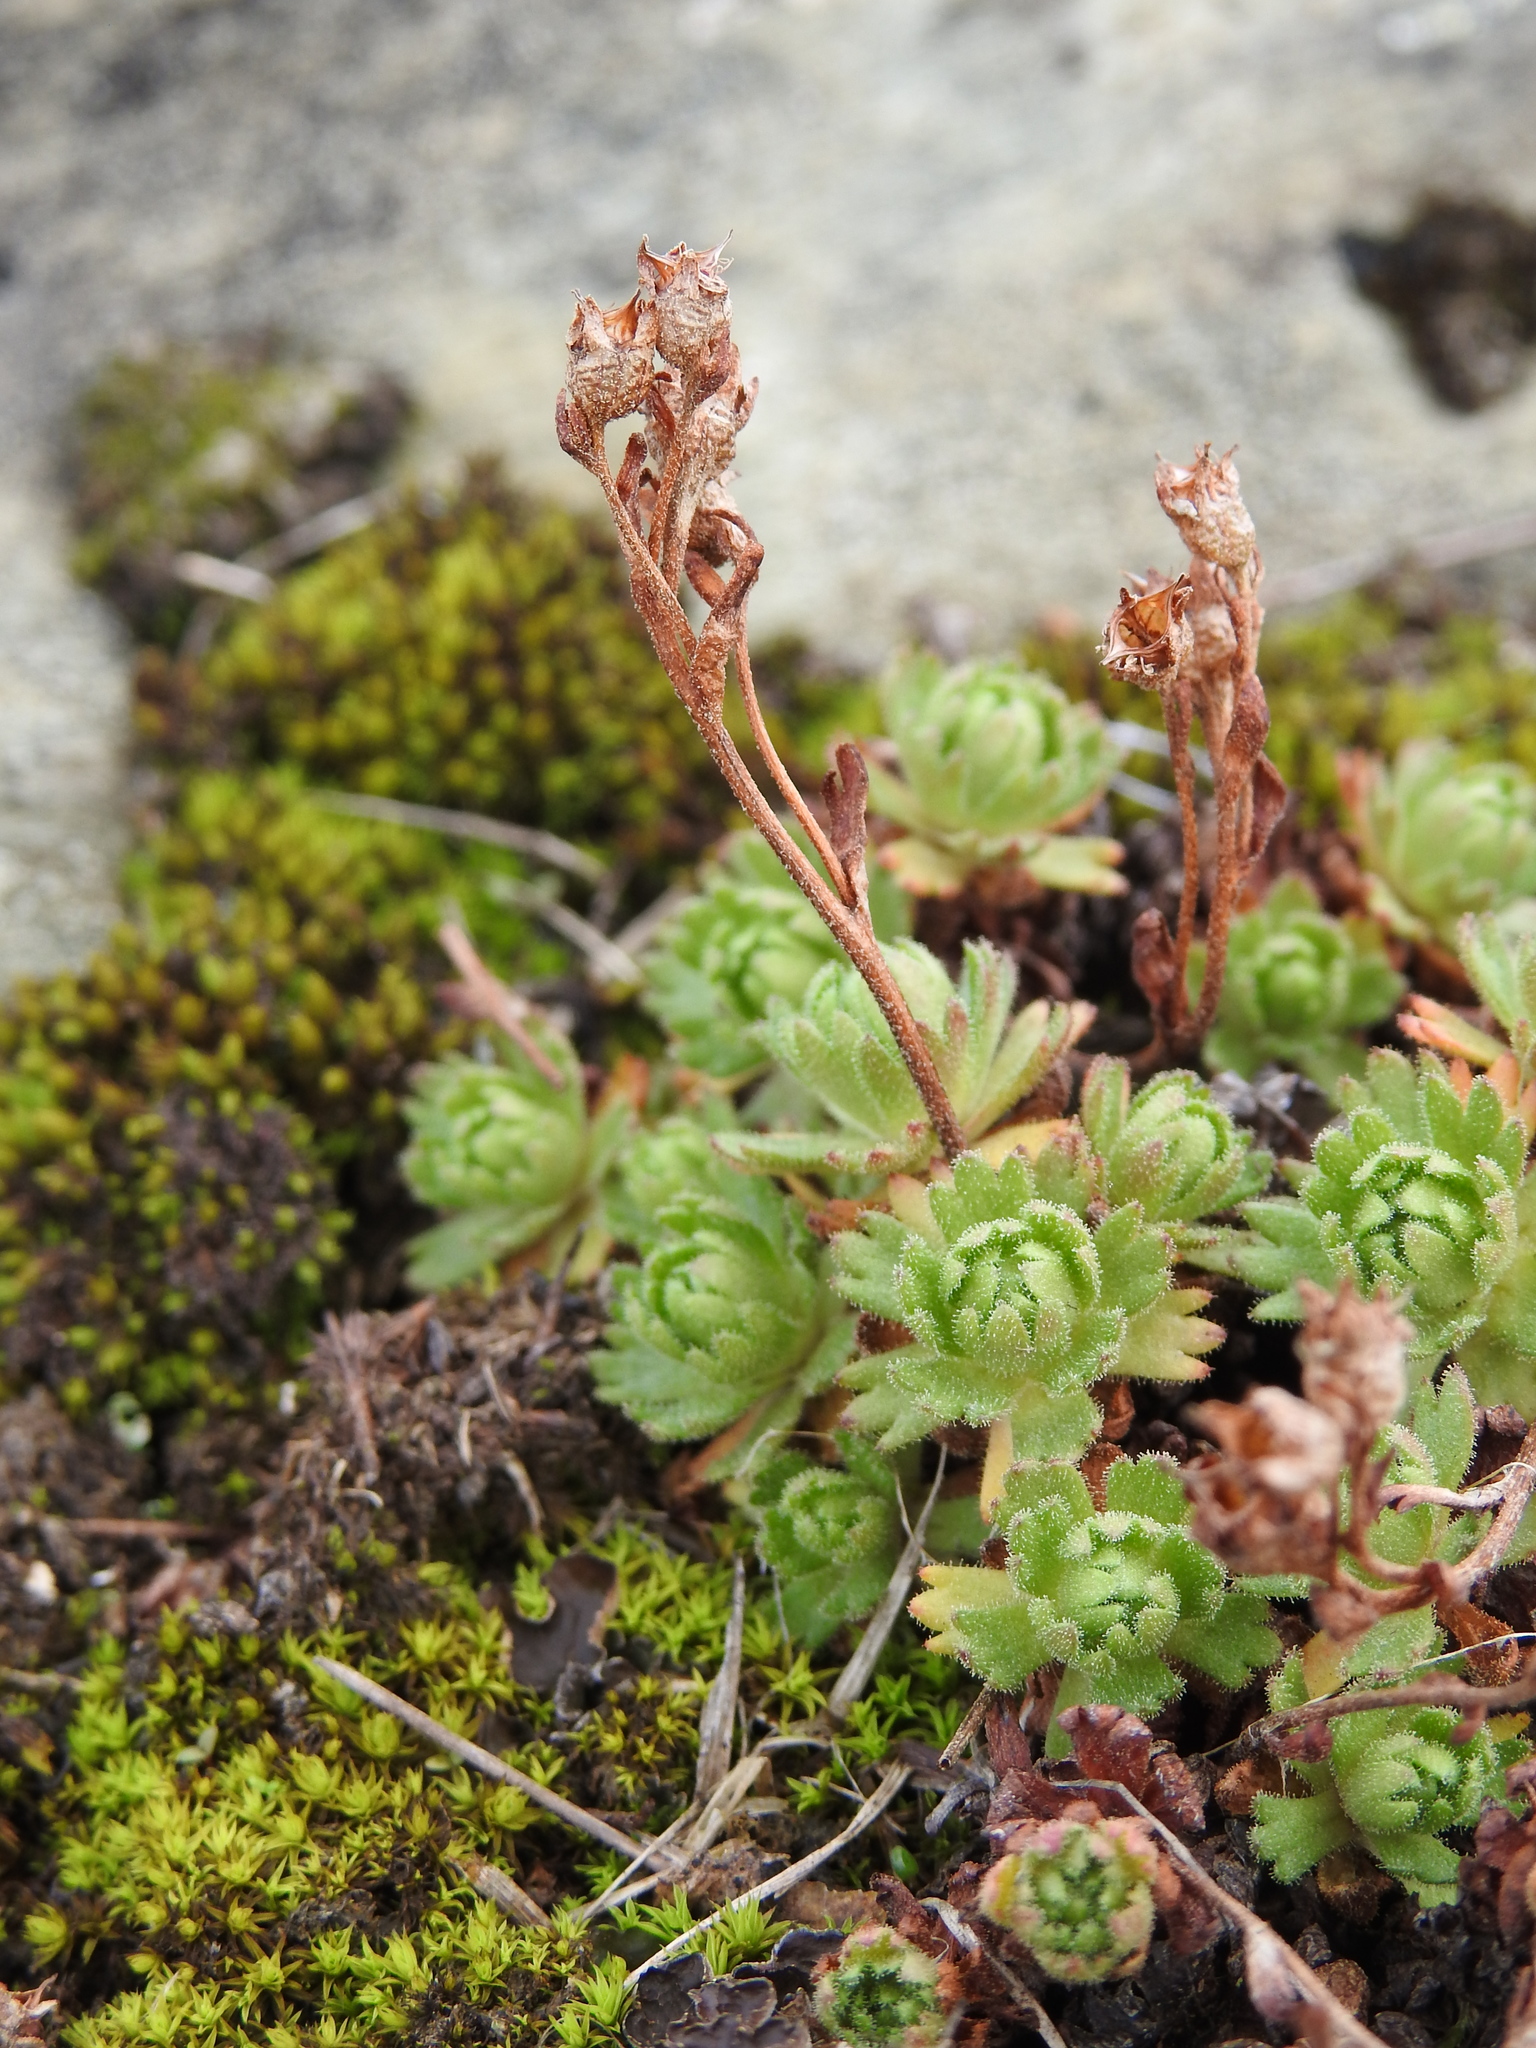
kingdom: Plantae
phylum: Tracheophyta
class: Magnoliopsida
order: Saxifragales
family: Saxifragaceae
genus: Saxifraga
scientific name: Saxifraga magellanica
